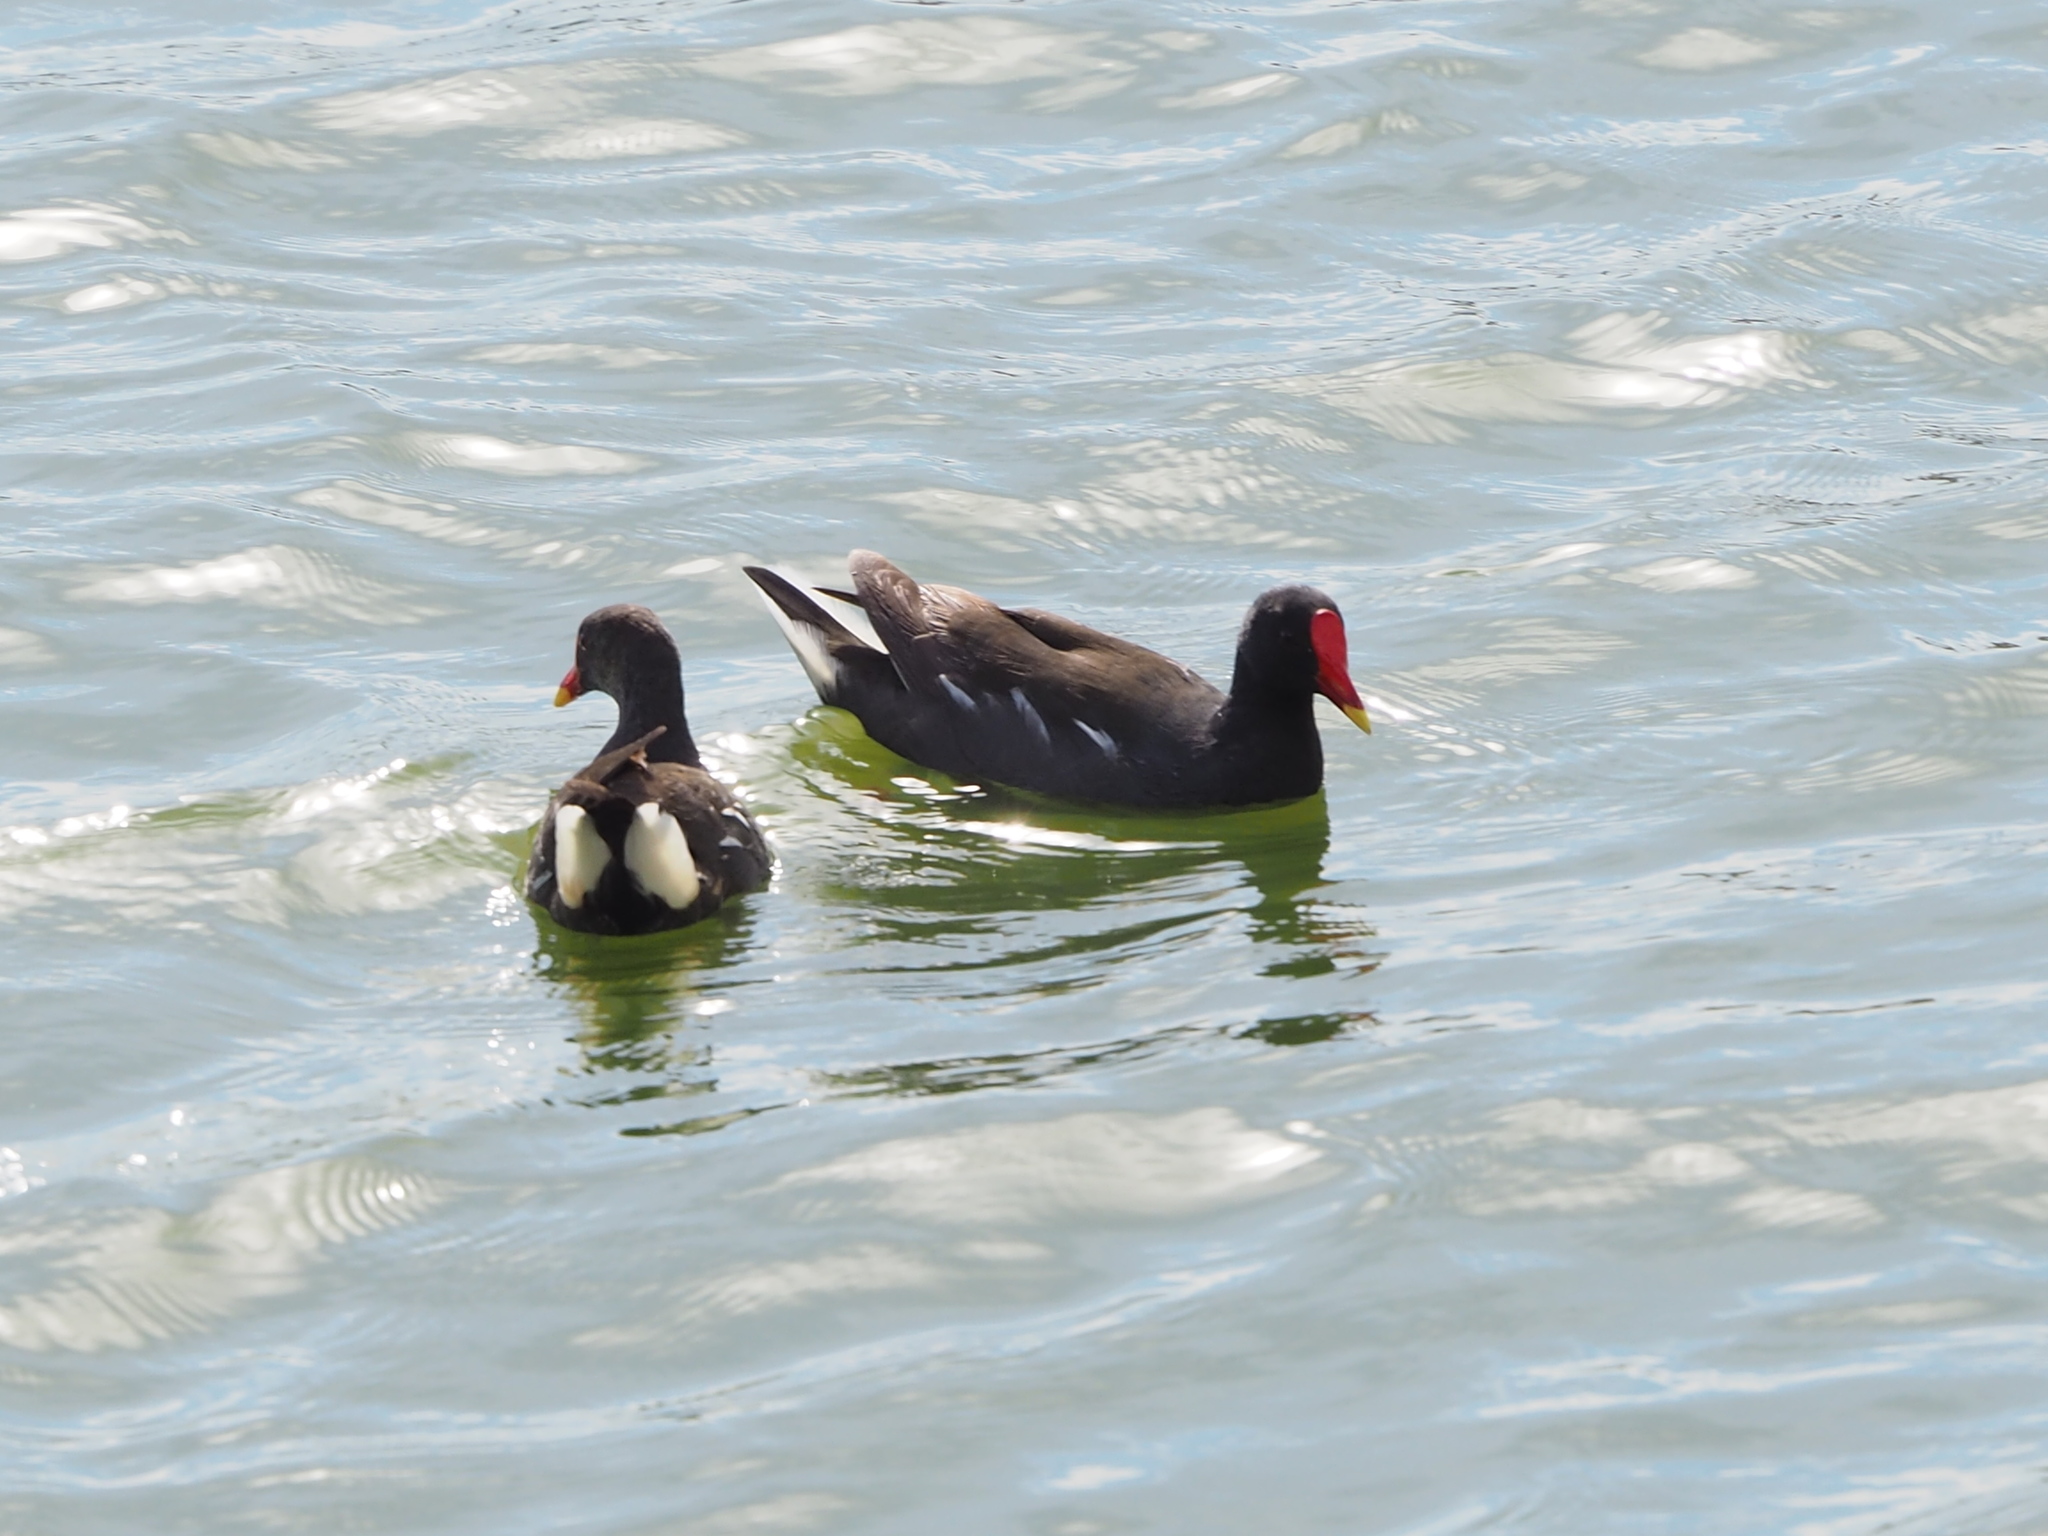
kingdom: Animalia
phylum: Chordata
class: Aves
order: Gruiformes
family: Rallidae
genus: Gallinula
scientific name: Gallinula chloropus
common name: Common moorhen
